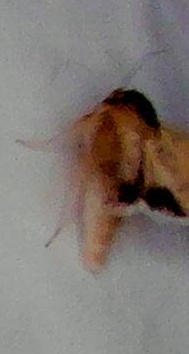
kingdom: Animalia
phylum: Arthropoda
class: Insecta
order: Lepidoptera
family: Noctuidae
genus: Helicoverpa
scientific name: Helicoverpa punctigera
